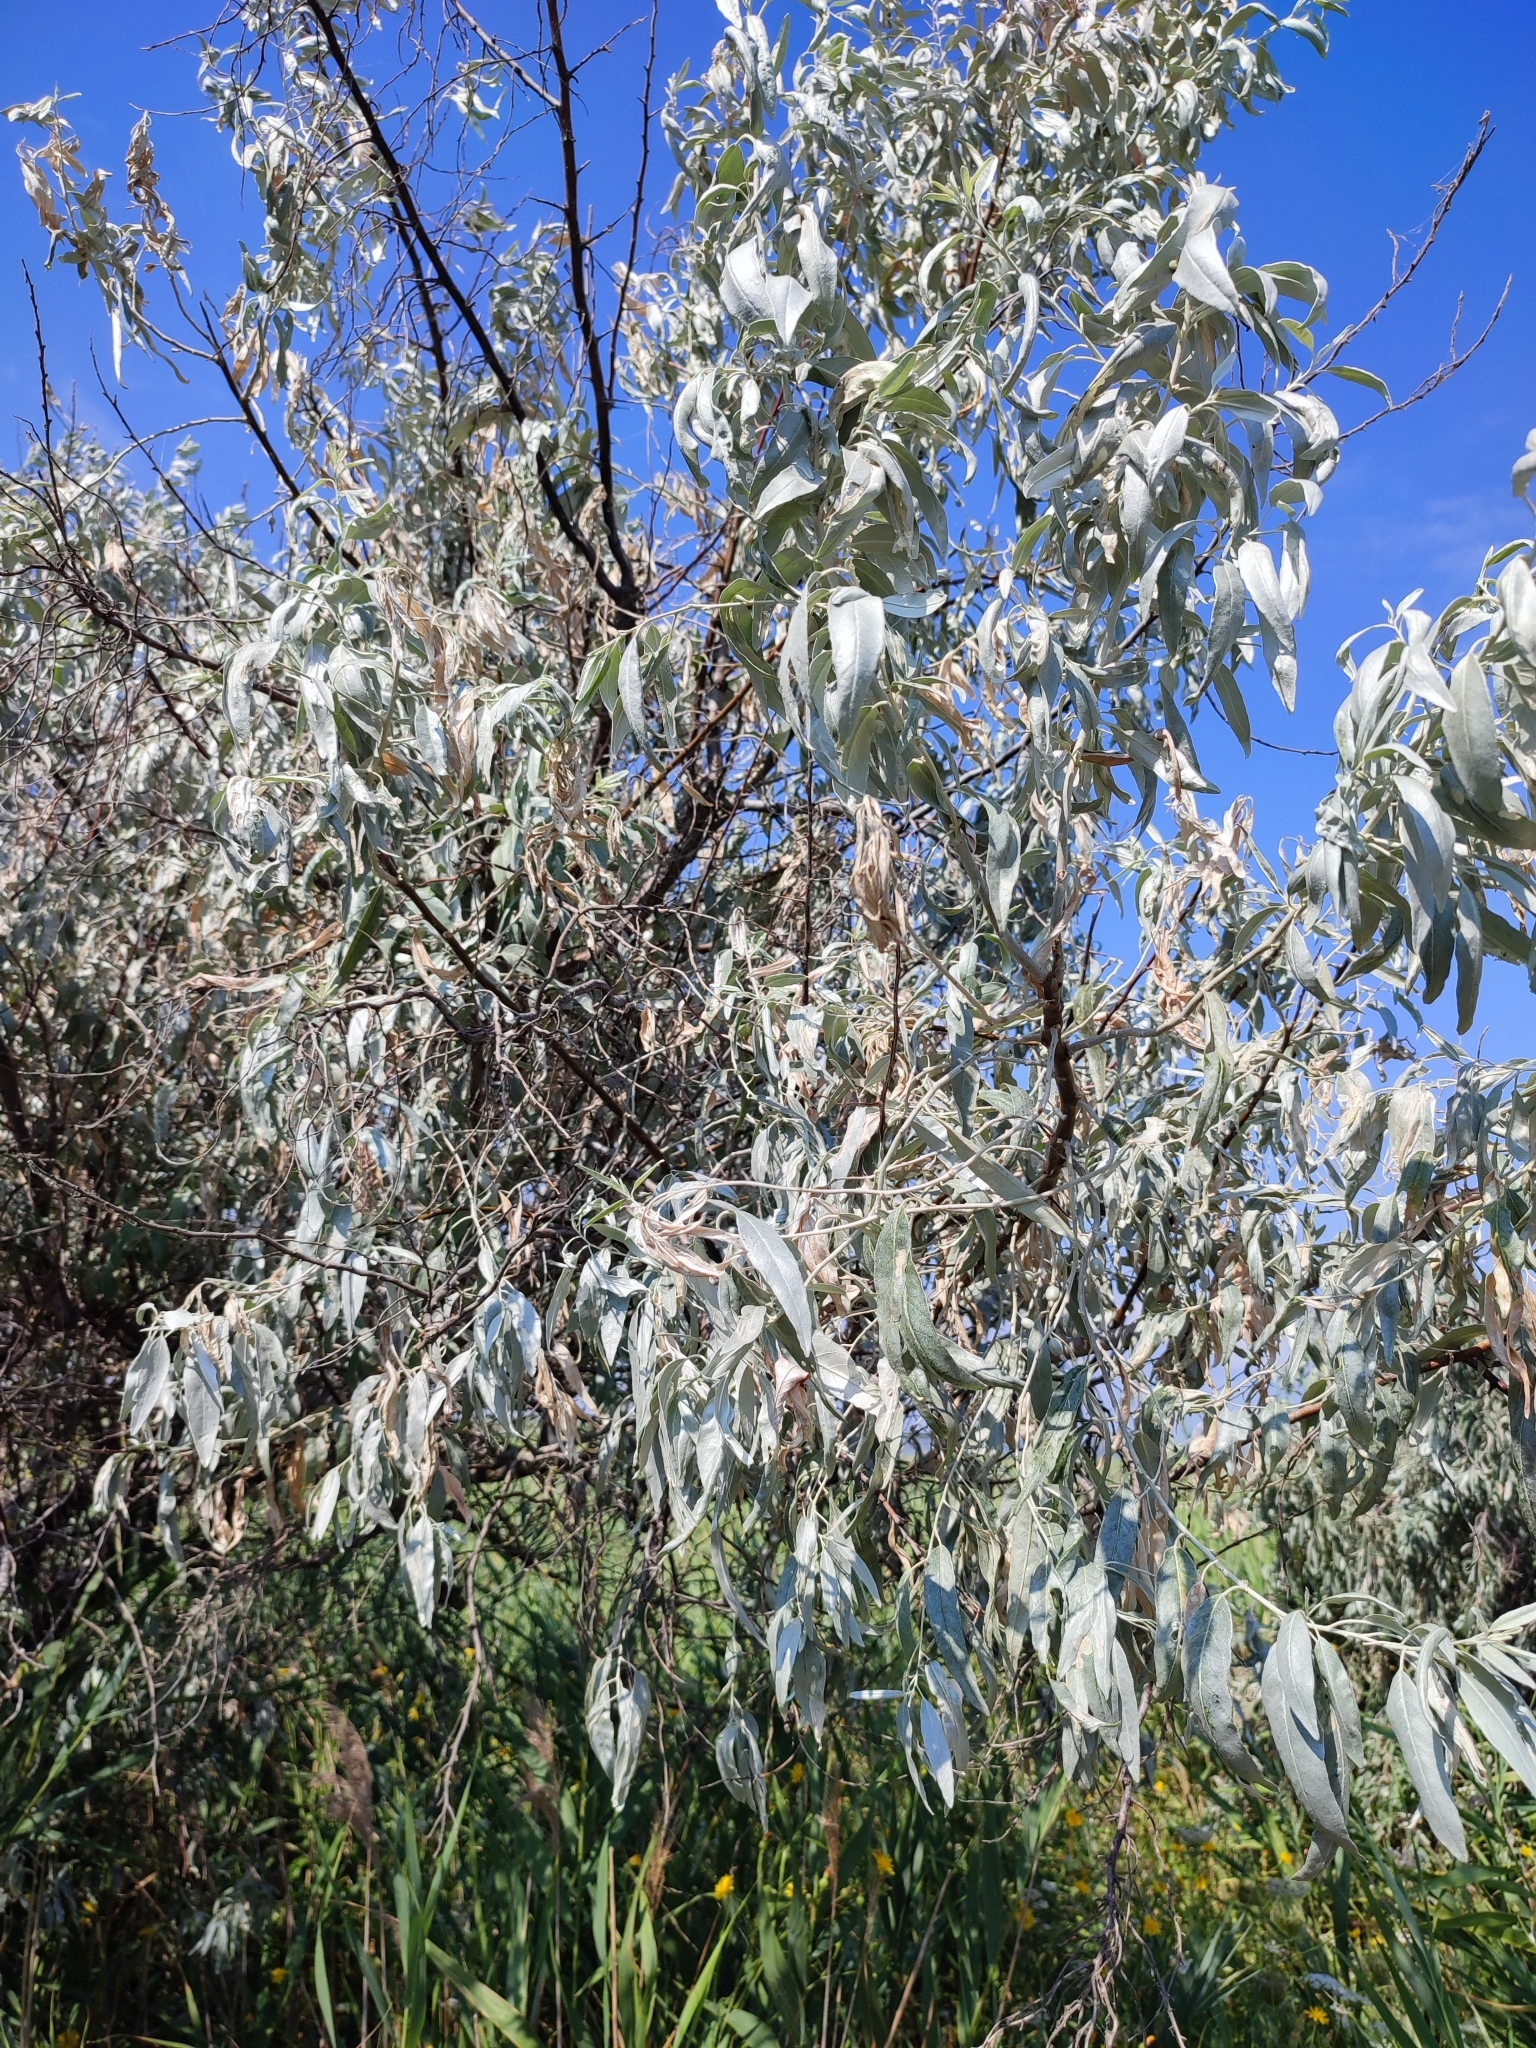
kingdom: Plantae
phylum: Tracheophyta
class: Magnoliopsida
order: Rosales
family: Elaeagnaceae
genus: Elaeagnus
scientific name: Elaeagnus angustifolia
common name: Russian olive
